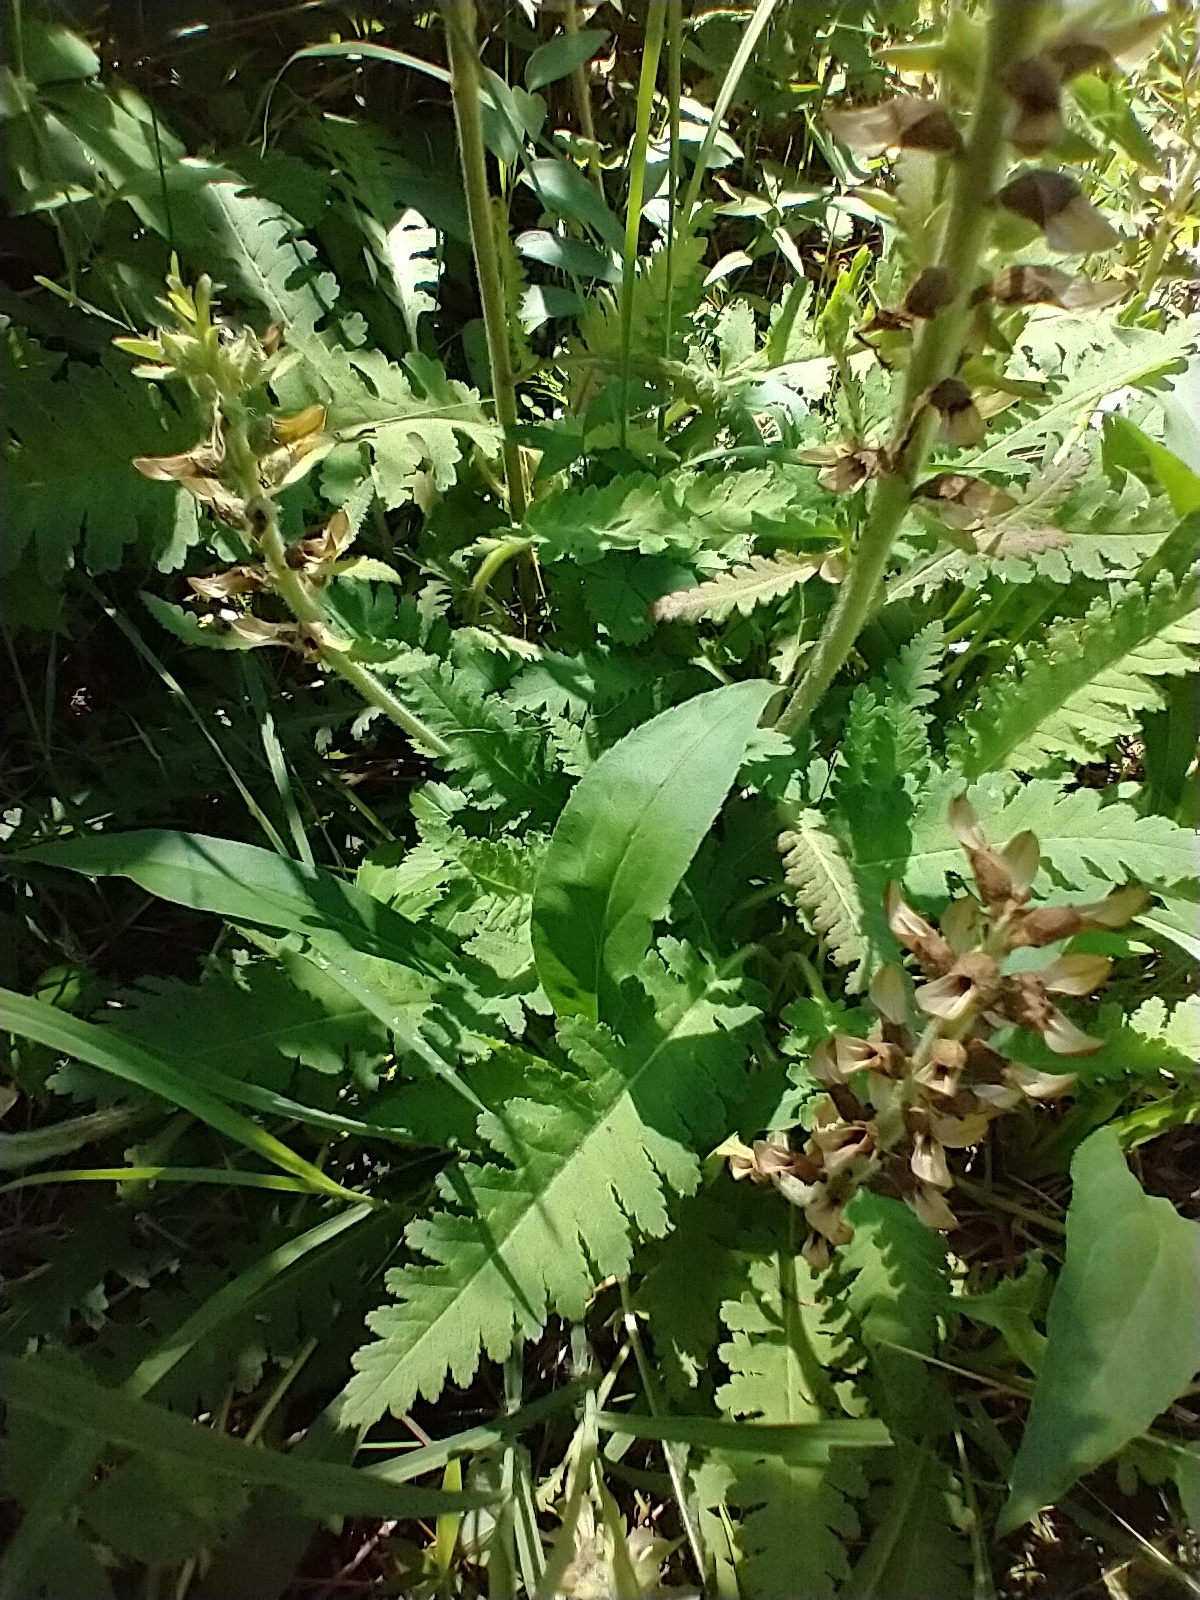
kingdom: Plantae
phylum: Tracheophyta
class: Magnoliopsida
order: Lamiales
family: Orobanchaceae
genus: Pedicularis
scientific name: Pedicularis canadensis
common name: Early lousewort
